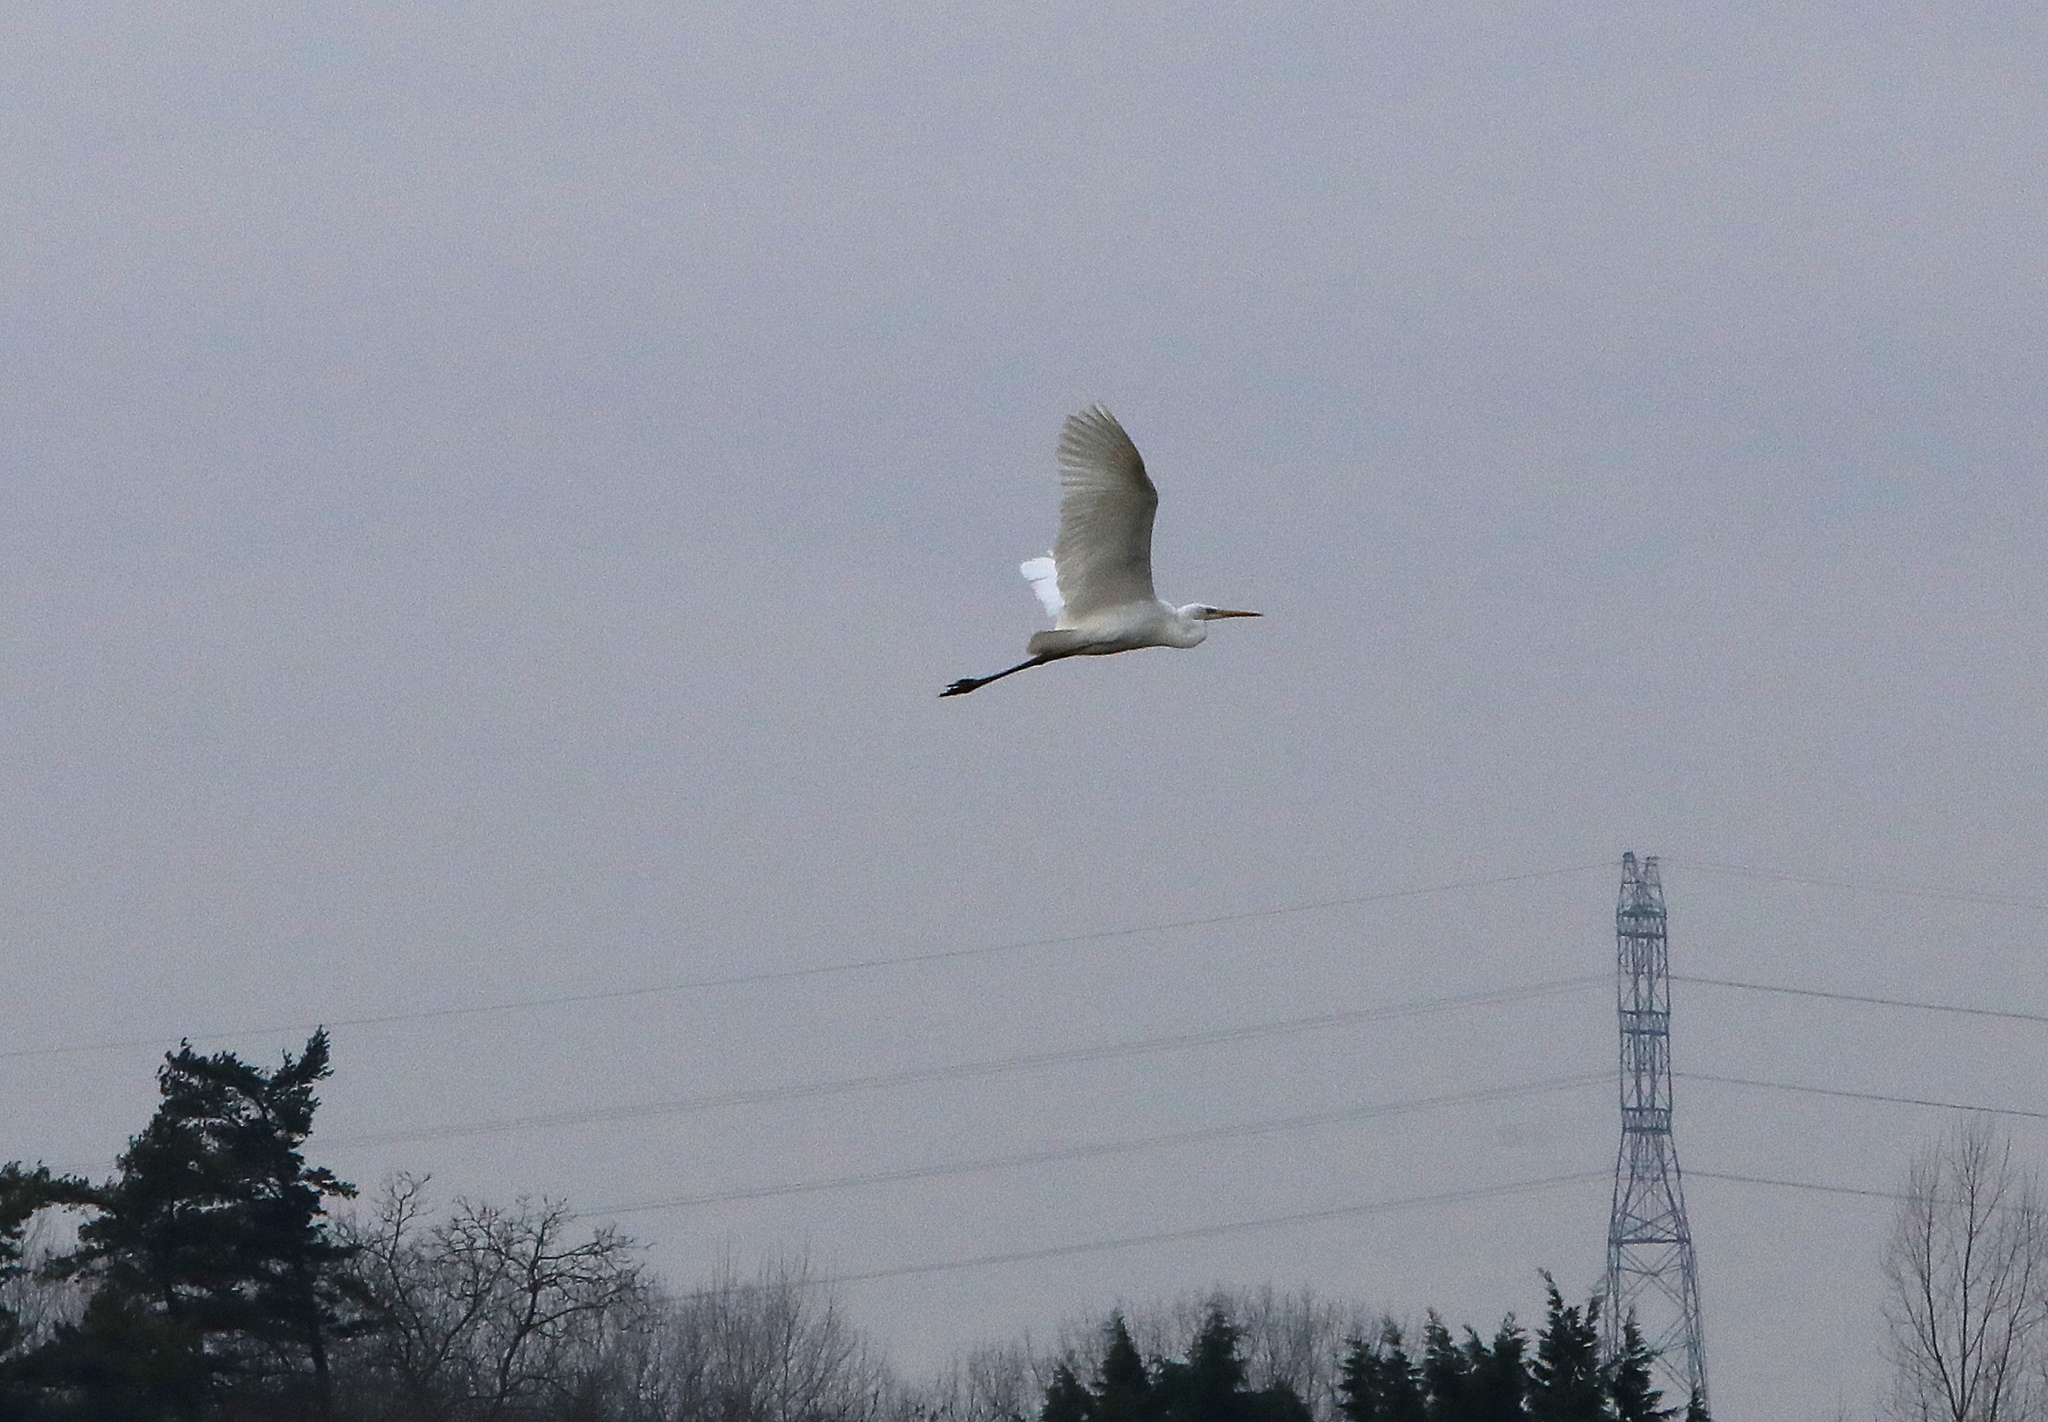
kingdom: Animalia
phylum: Chordata
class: Aves
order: Pelecaniformes
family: Ardeidae
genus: Ardea
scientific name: Ardea alba
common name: Great egret
